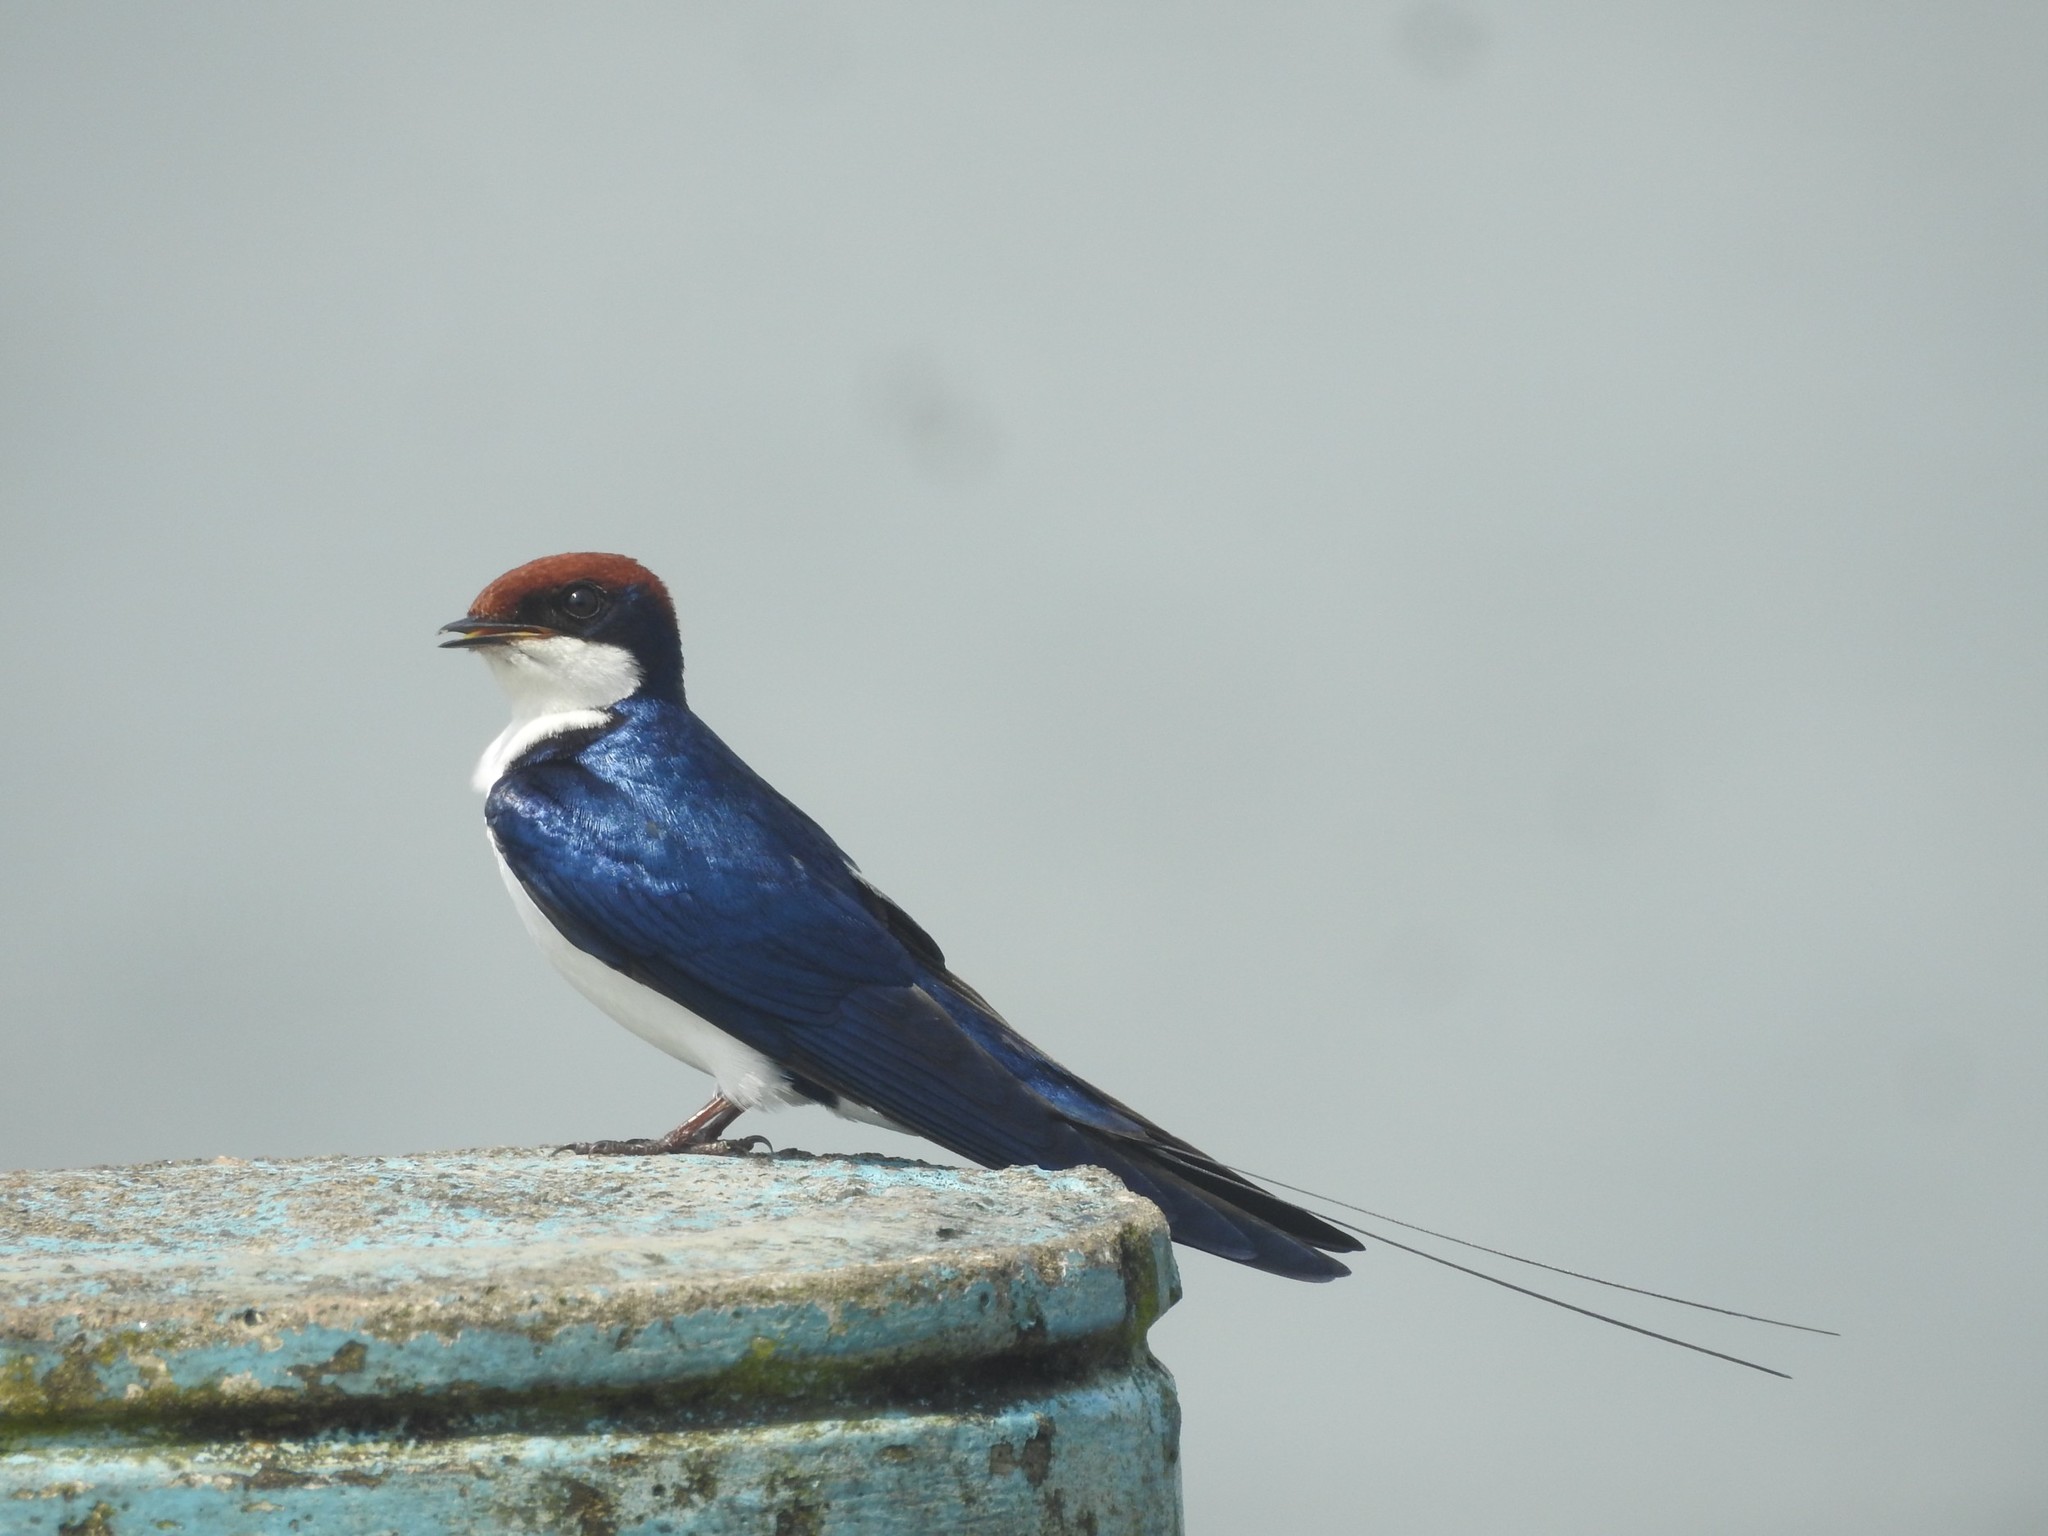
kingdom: Animalia
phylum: Chordata
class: Aves
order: Passeriformes
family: Hirundinidae
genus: Hirundo
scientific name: Hirundo smithii
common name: Wire-tailed swallow
